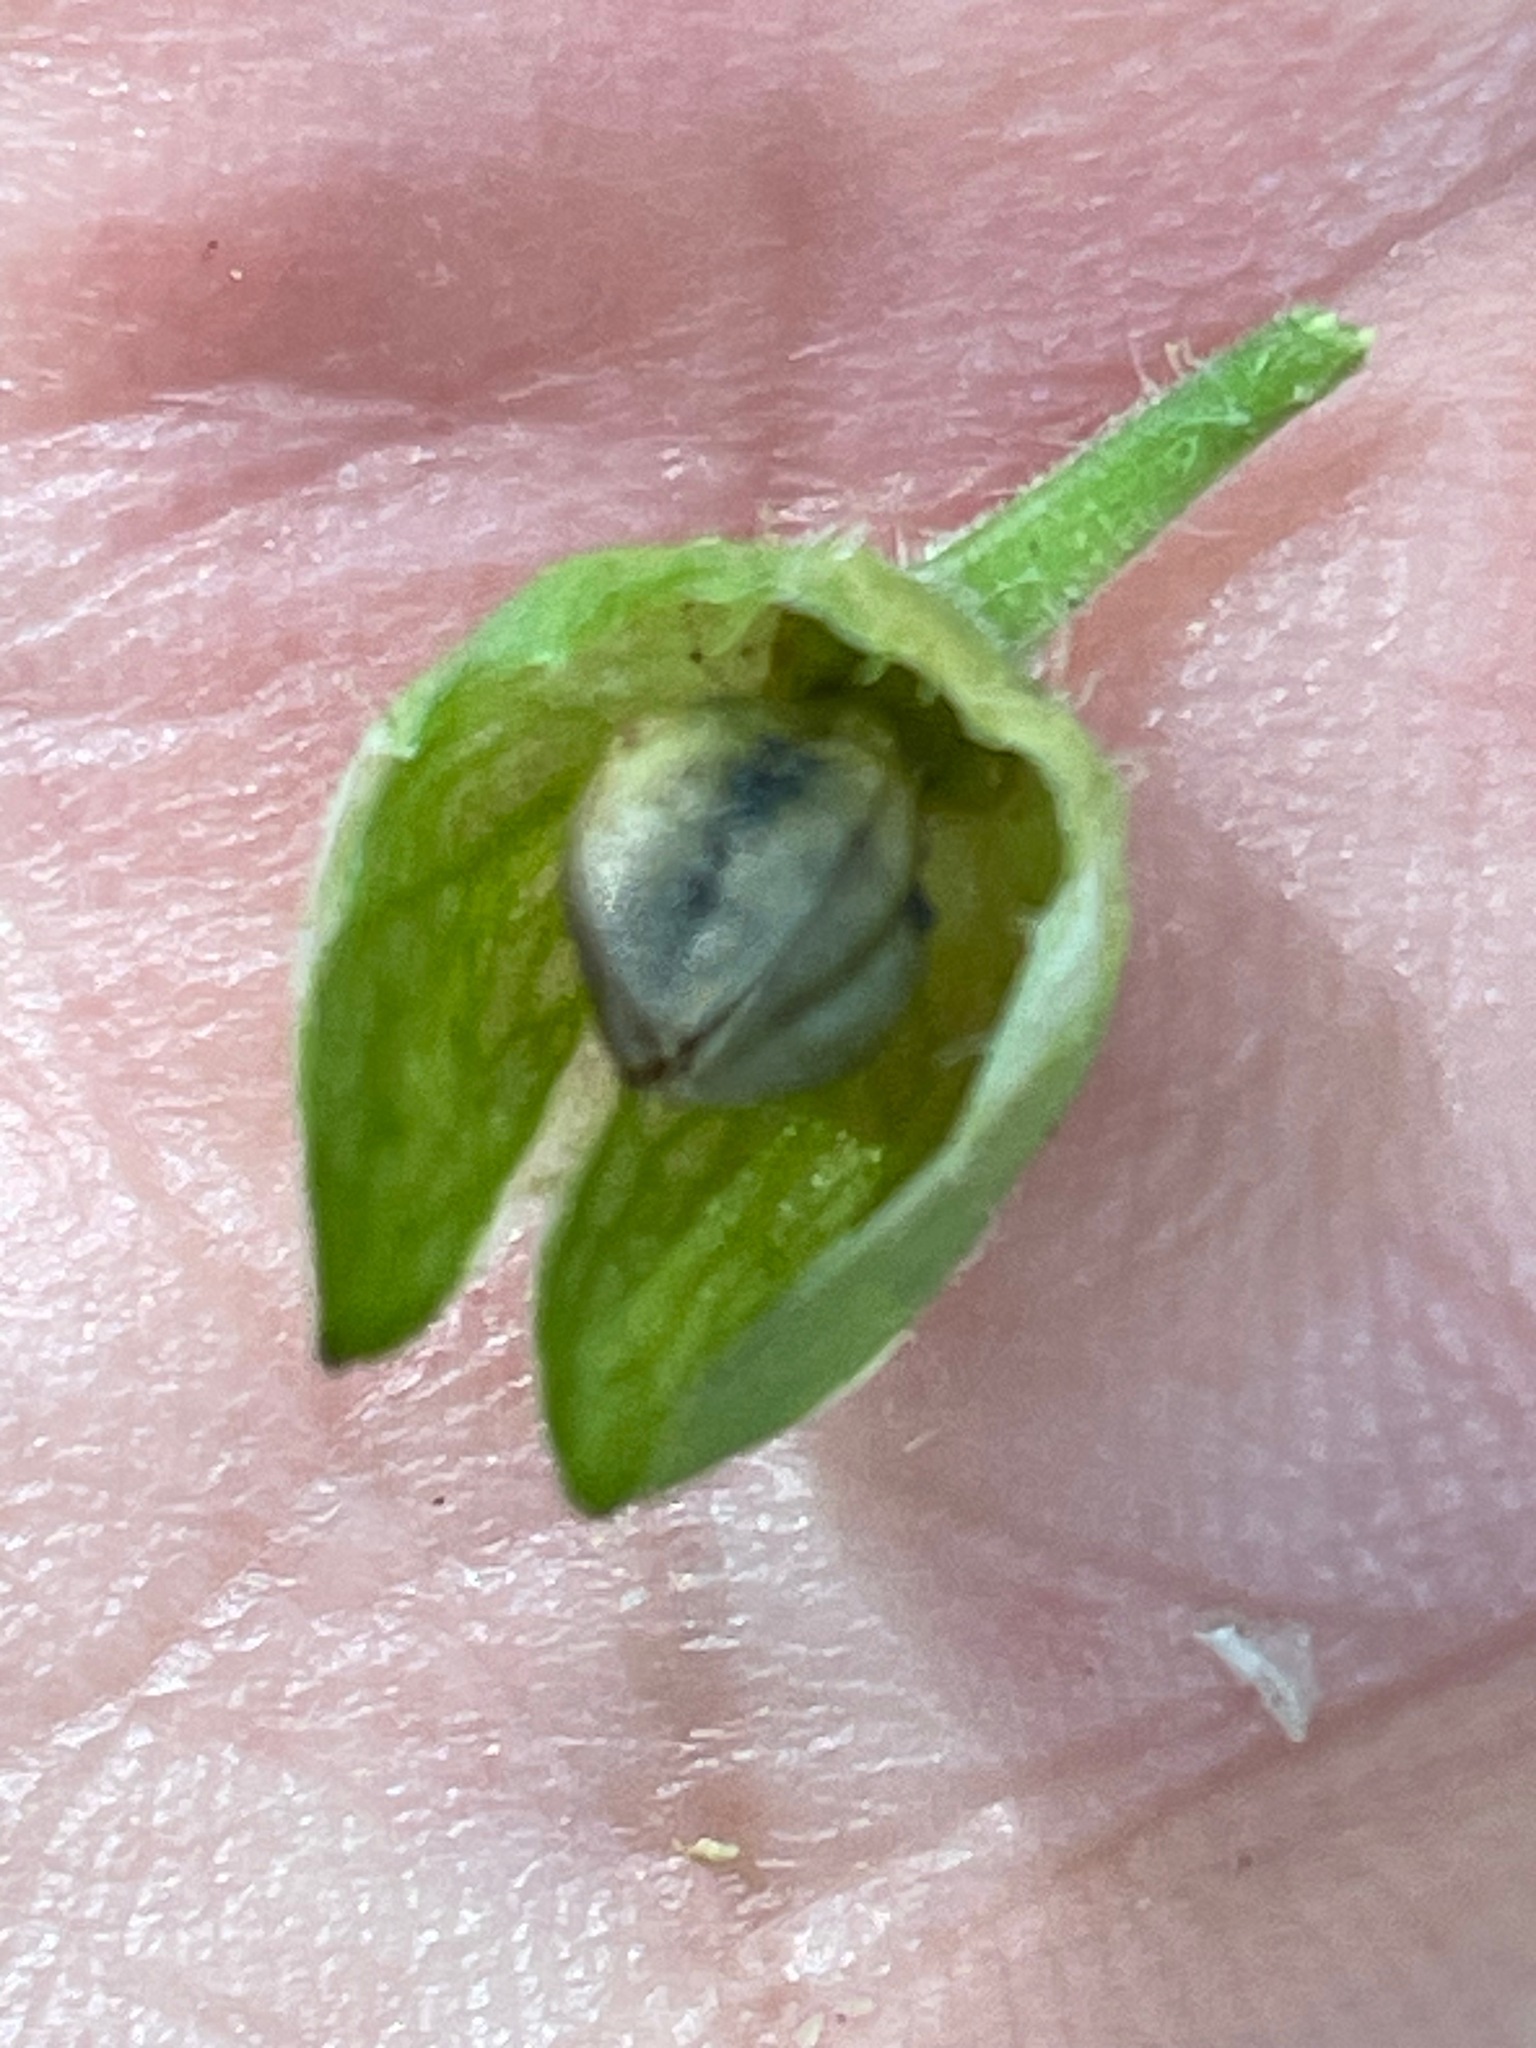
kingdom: Plantae
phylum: Tracheophyta
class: Magnoliopsida
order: Ericales
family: Polemoniaceae
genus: Polemonium
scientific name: Polemonium vanbruntiae
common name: Bog jacob's-ladder
